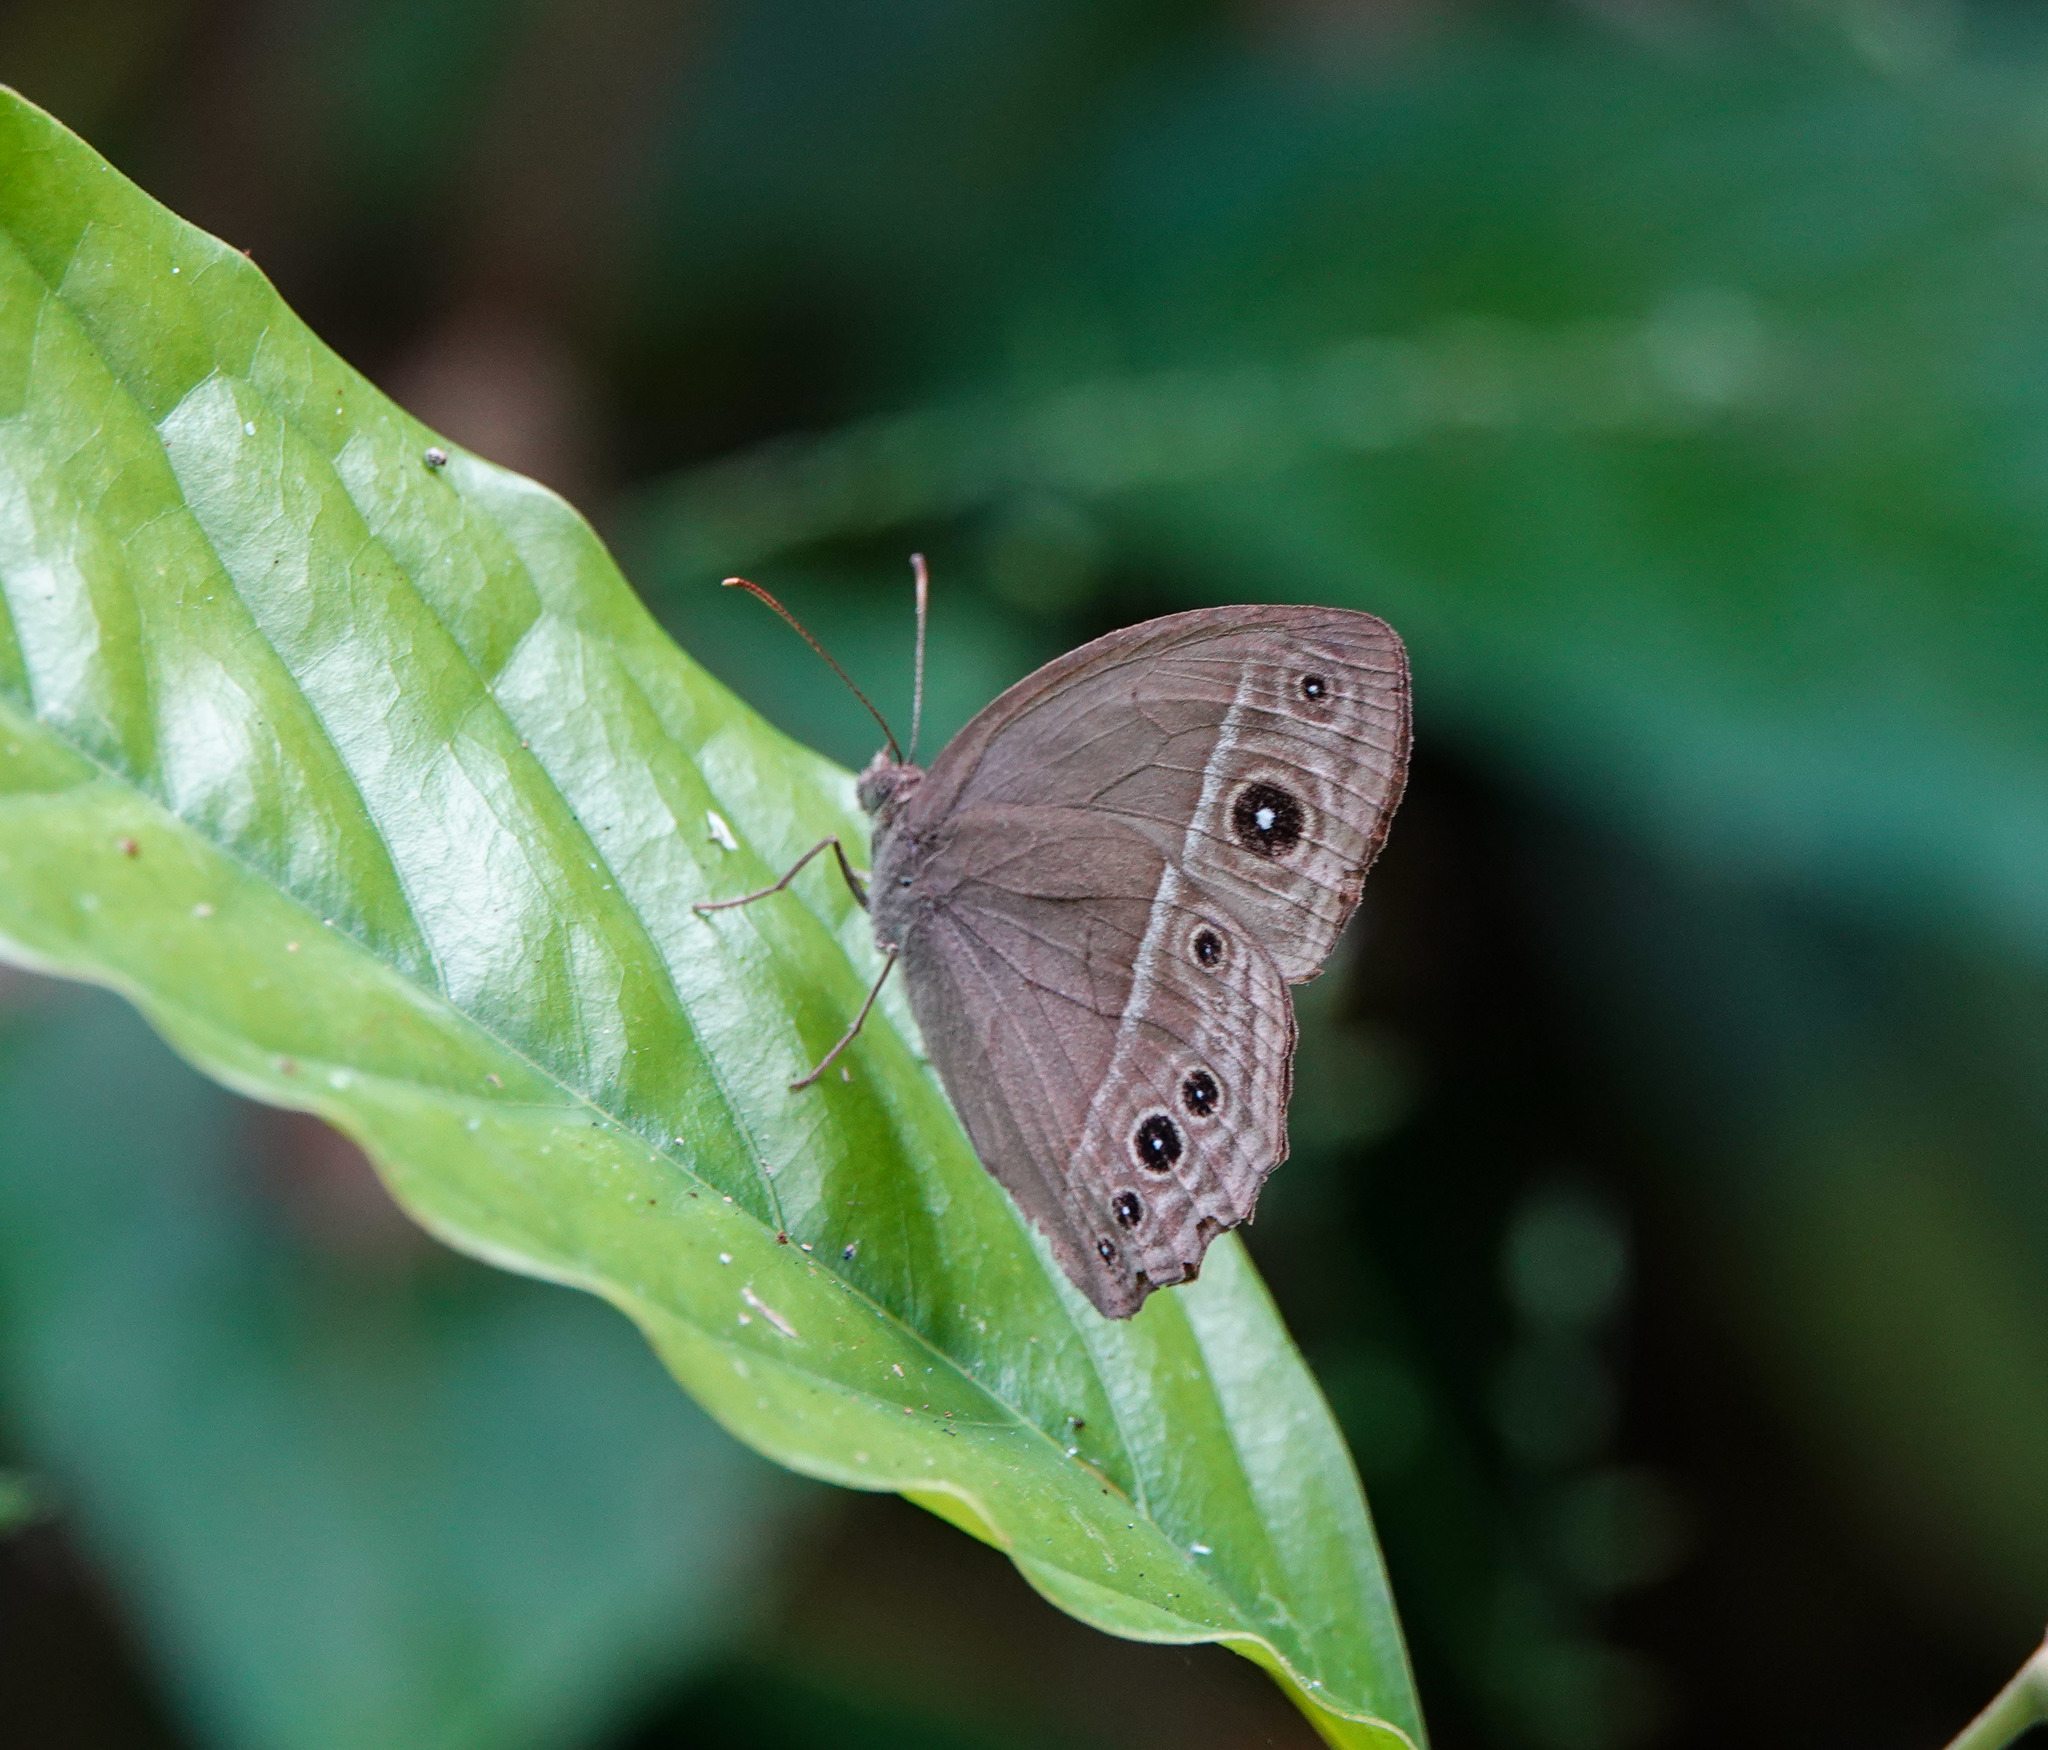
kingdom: Animalia
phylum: Arthropoda
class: Insecta
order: Lepidoptera
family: Nymphalidae
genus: Mycalesis
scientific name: Mycalesis mineus
